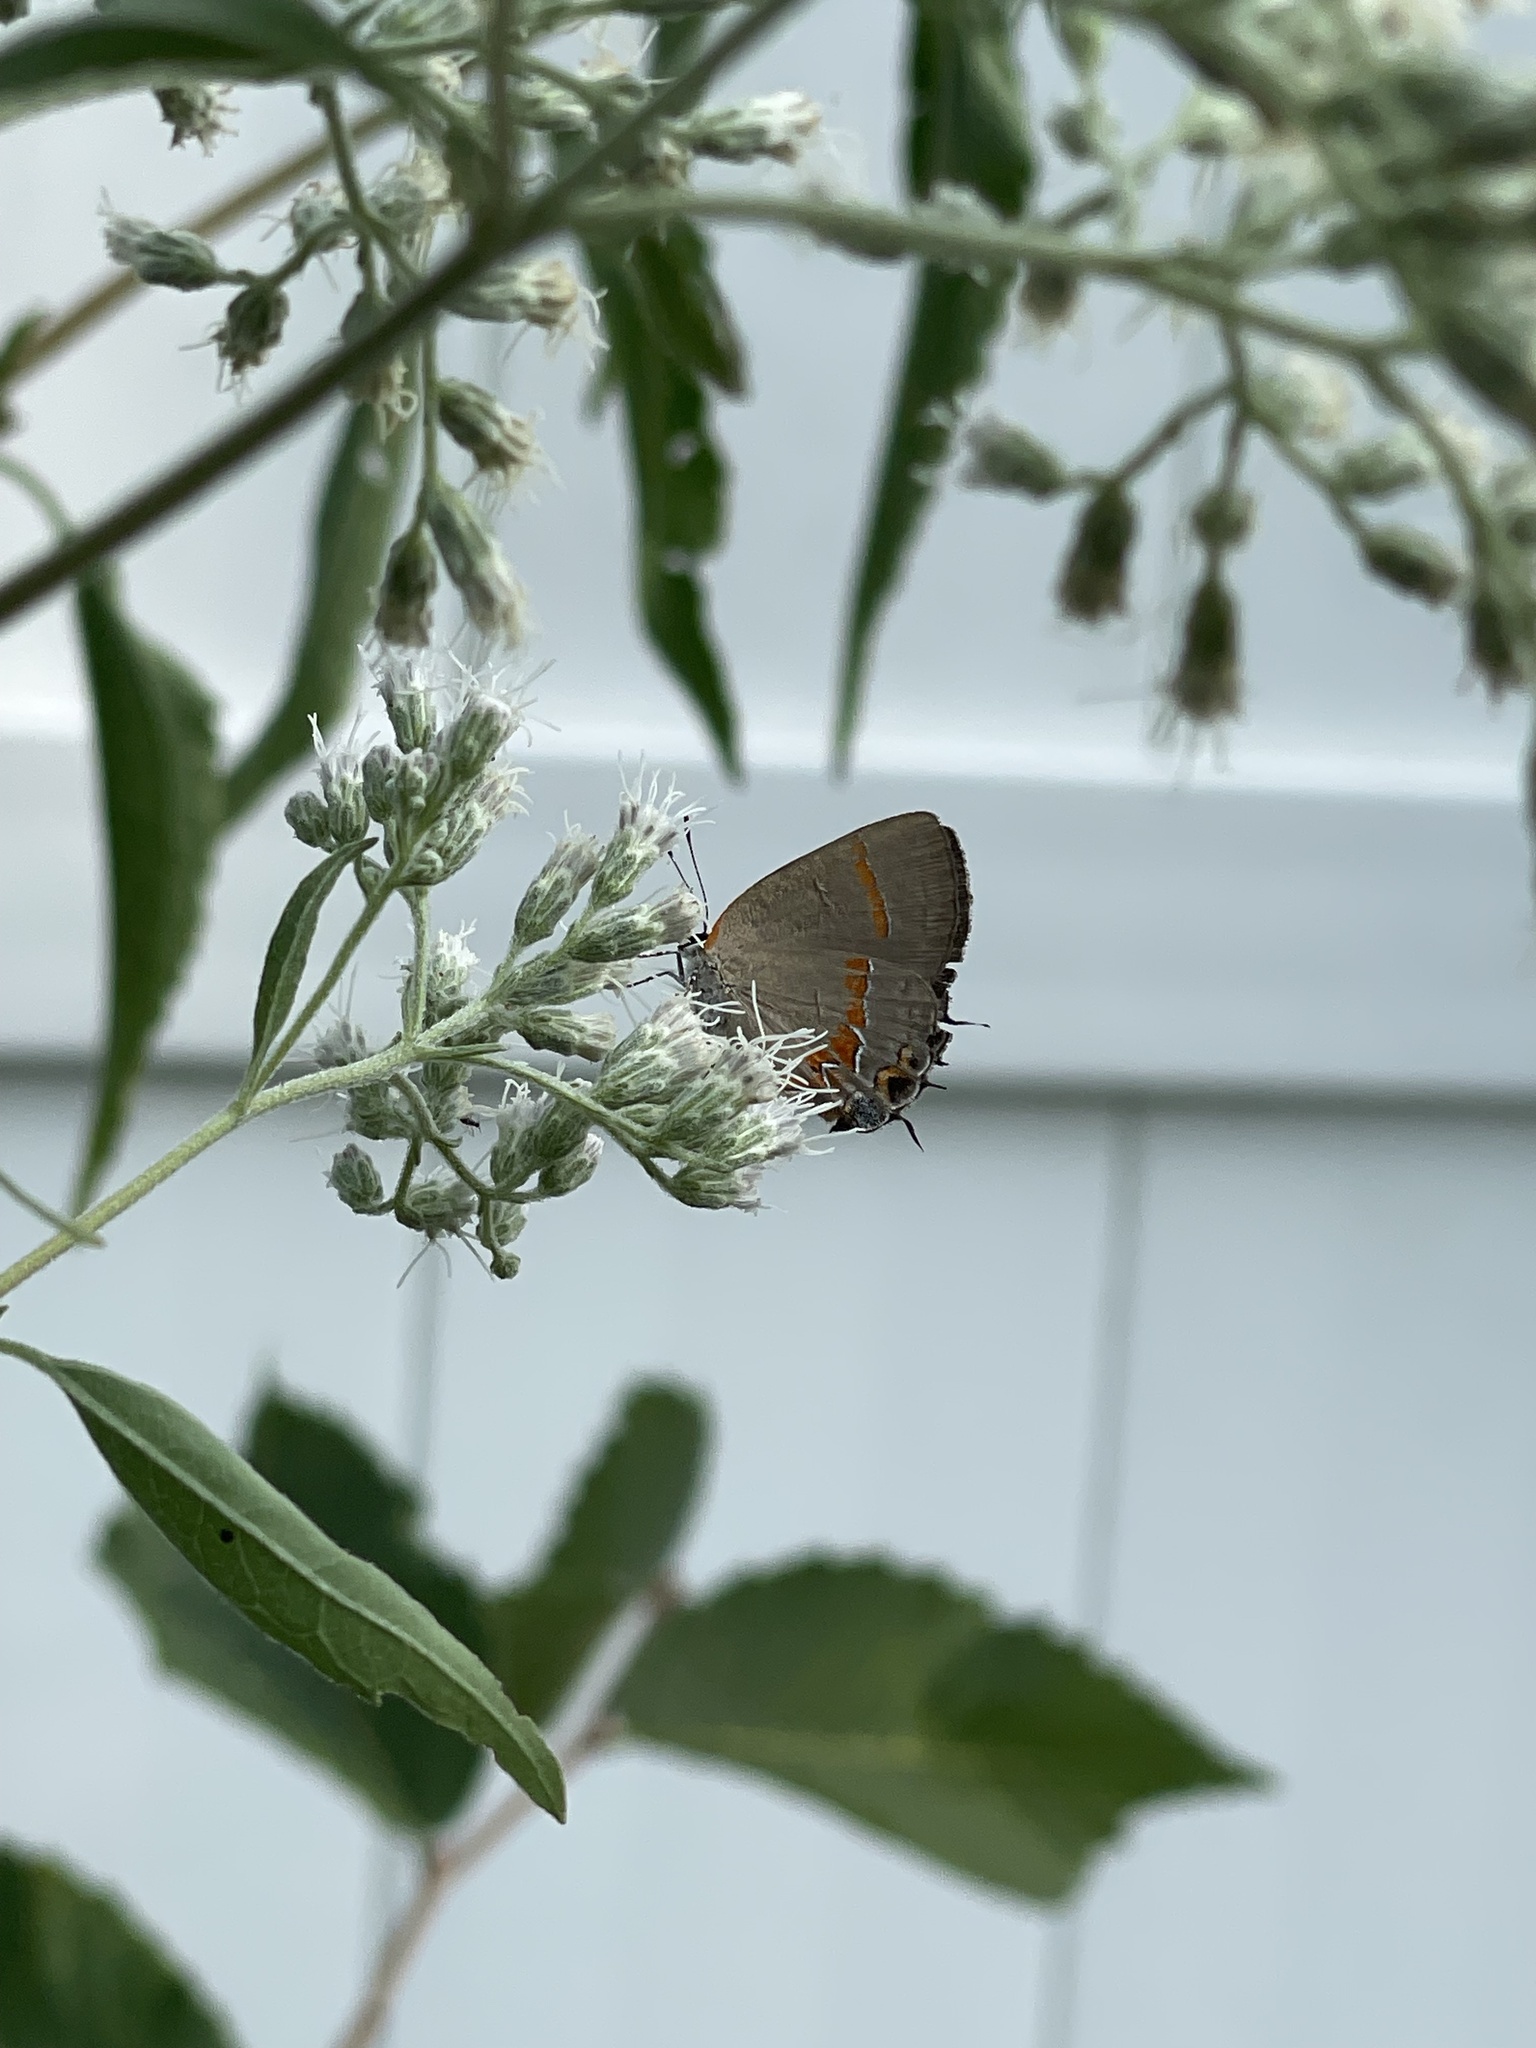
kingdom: Animalia
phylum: Arthropoda
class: Insecta
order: Lepidoptera
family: Lycaenidae
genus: Calycopis
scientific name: Calycopis cecrops
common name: Red-banded hairstreak
